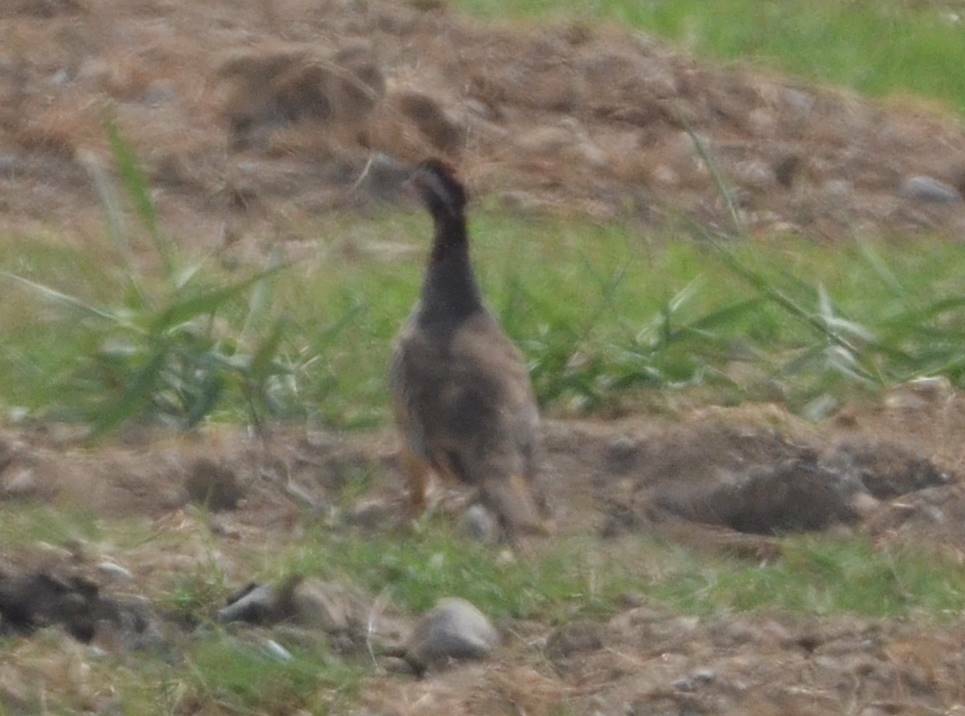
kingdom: Animalia
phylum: Chordata
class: Aves
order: Galliformes
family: Phasianidae
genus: Alectoris
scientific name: Alectoris barbara
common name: Barbary partridge
